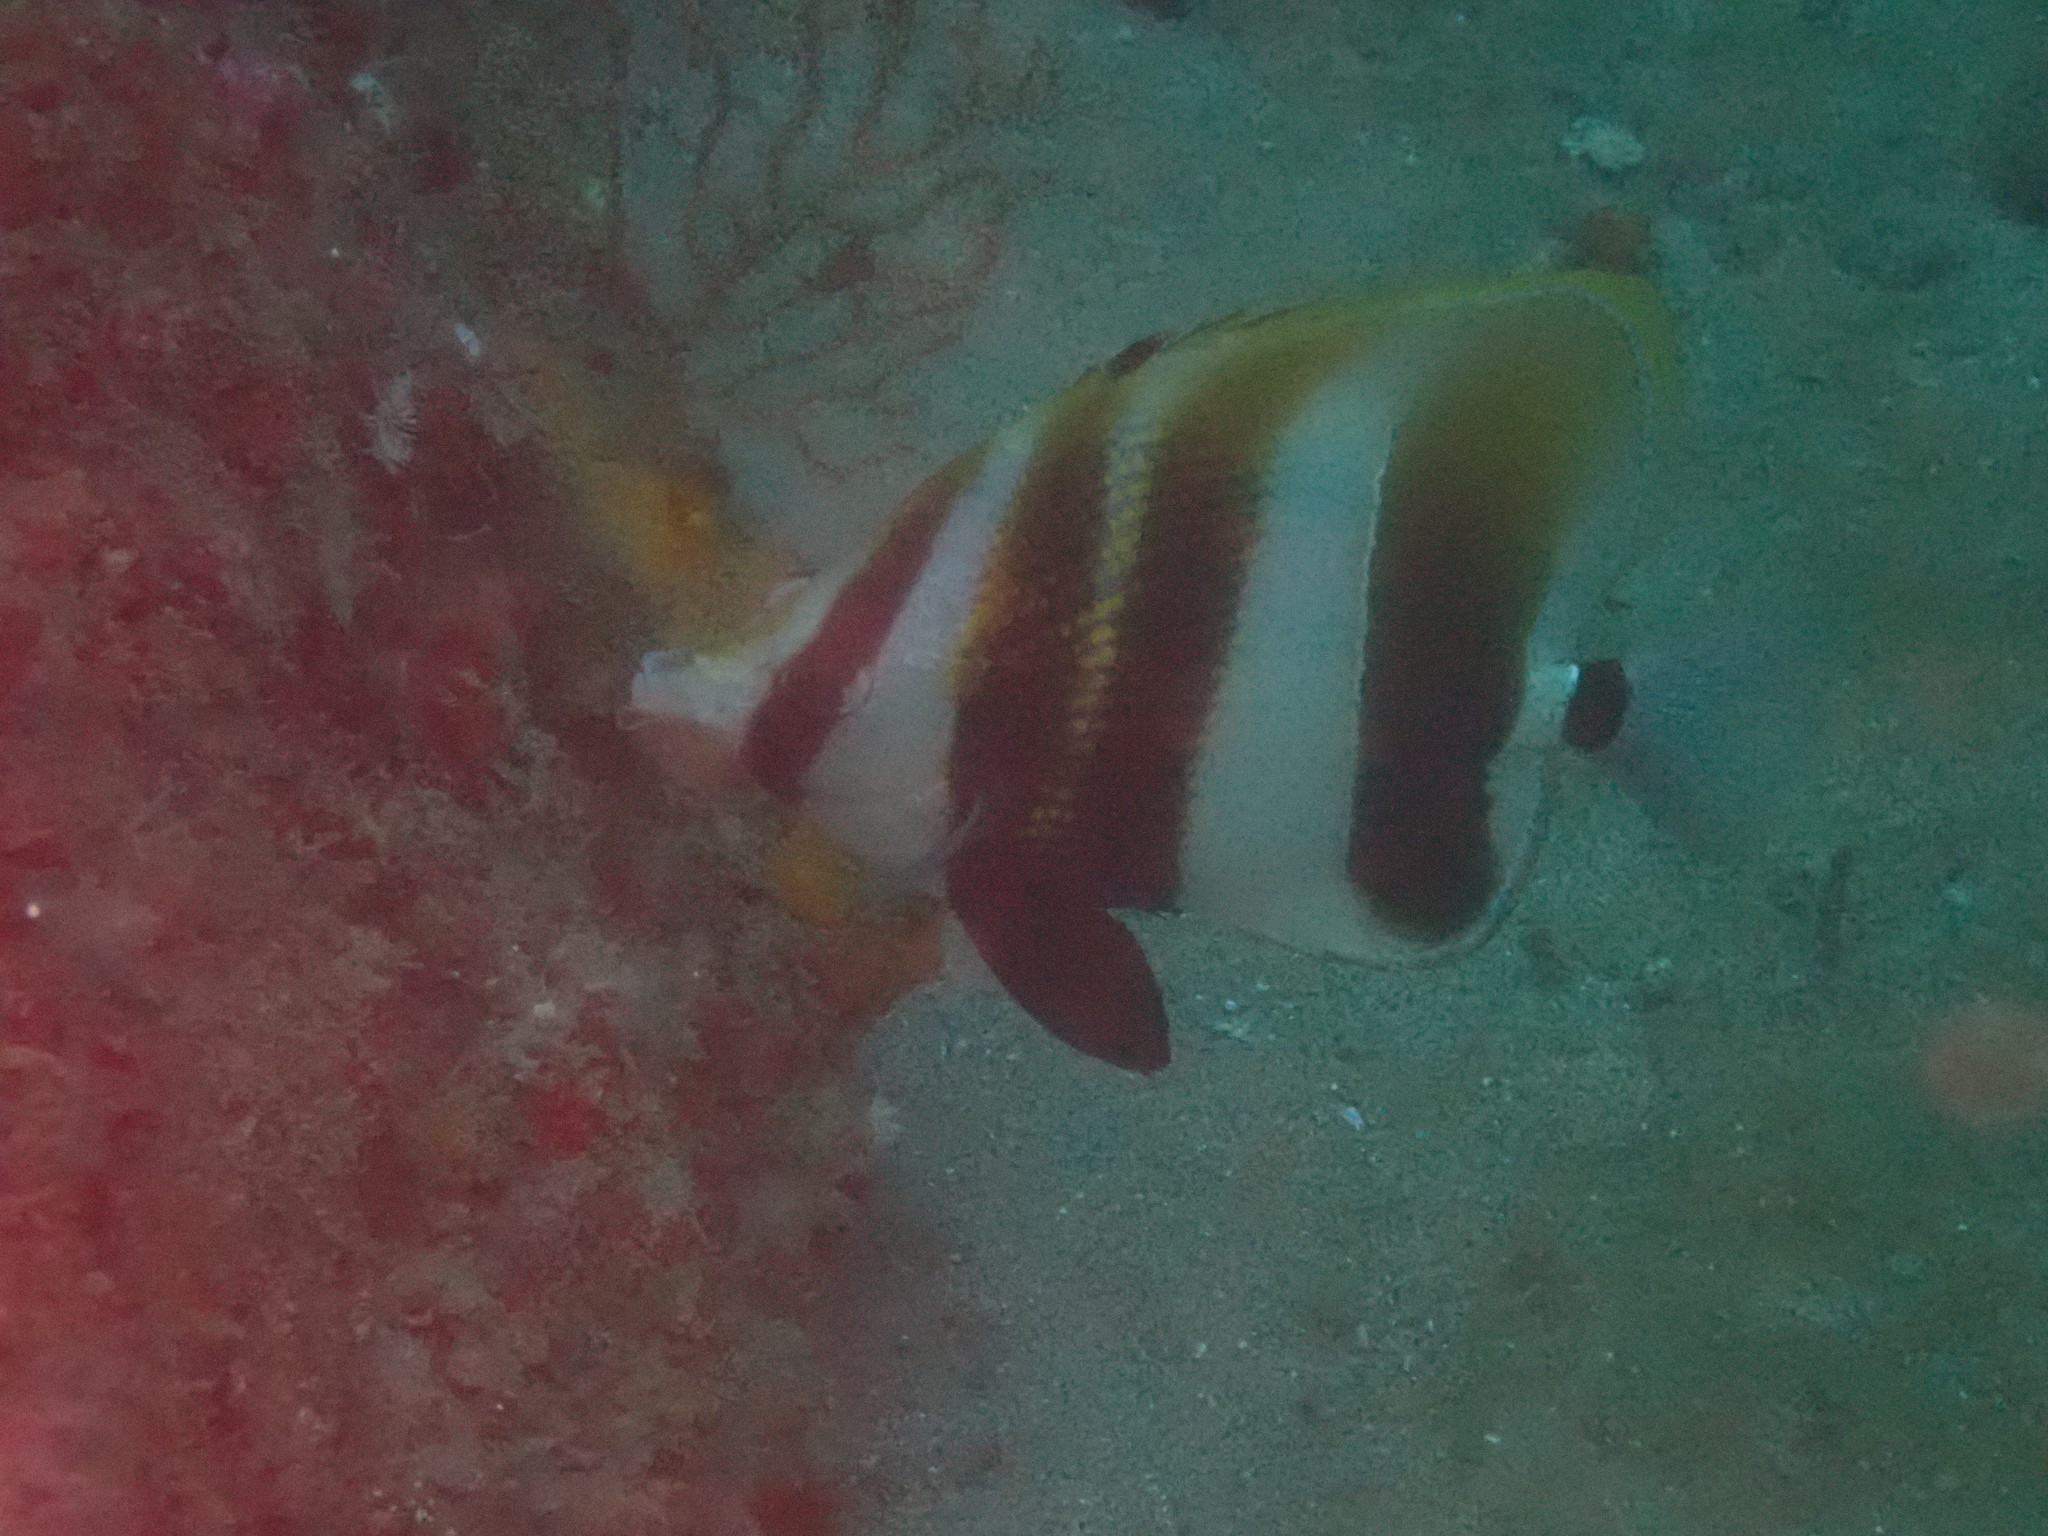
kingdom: Animalia
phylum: Chordata
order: Perciformes
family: Chaetodontidae
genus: Coradion
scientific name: Coradion altivelis
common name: High-fin butterflyfish
